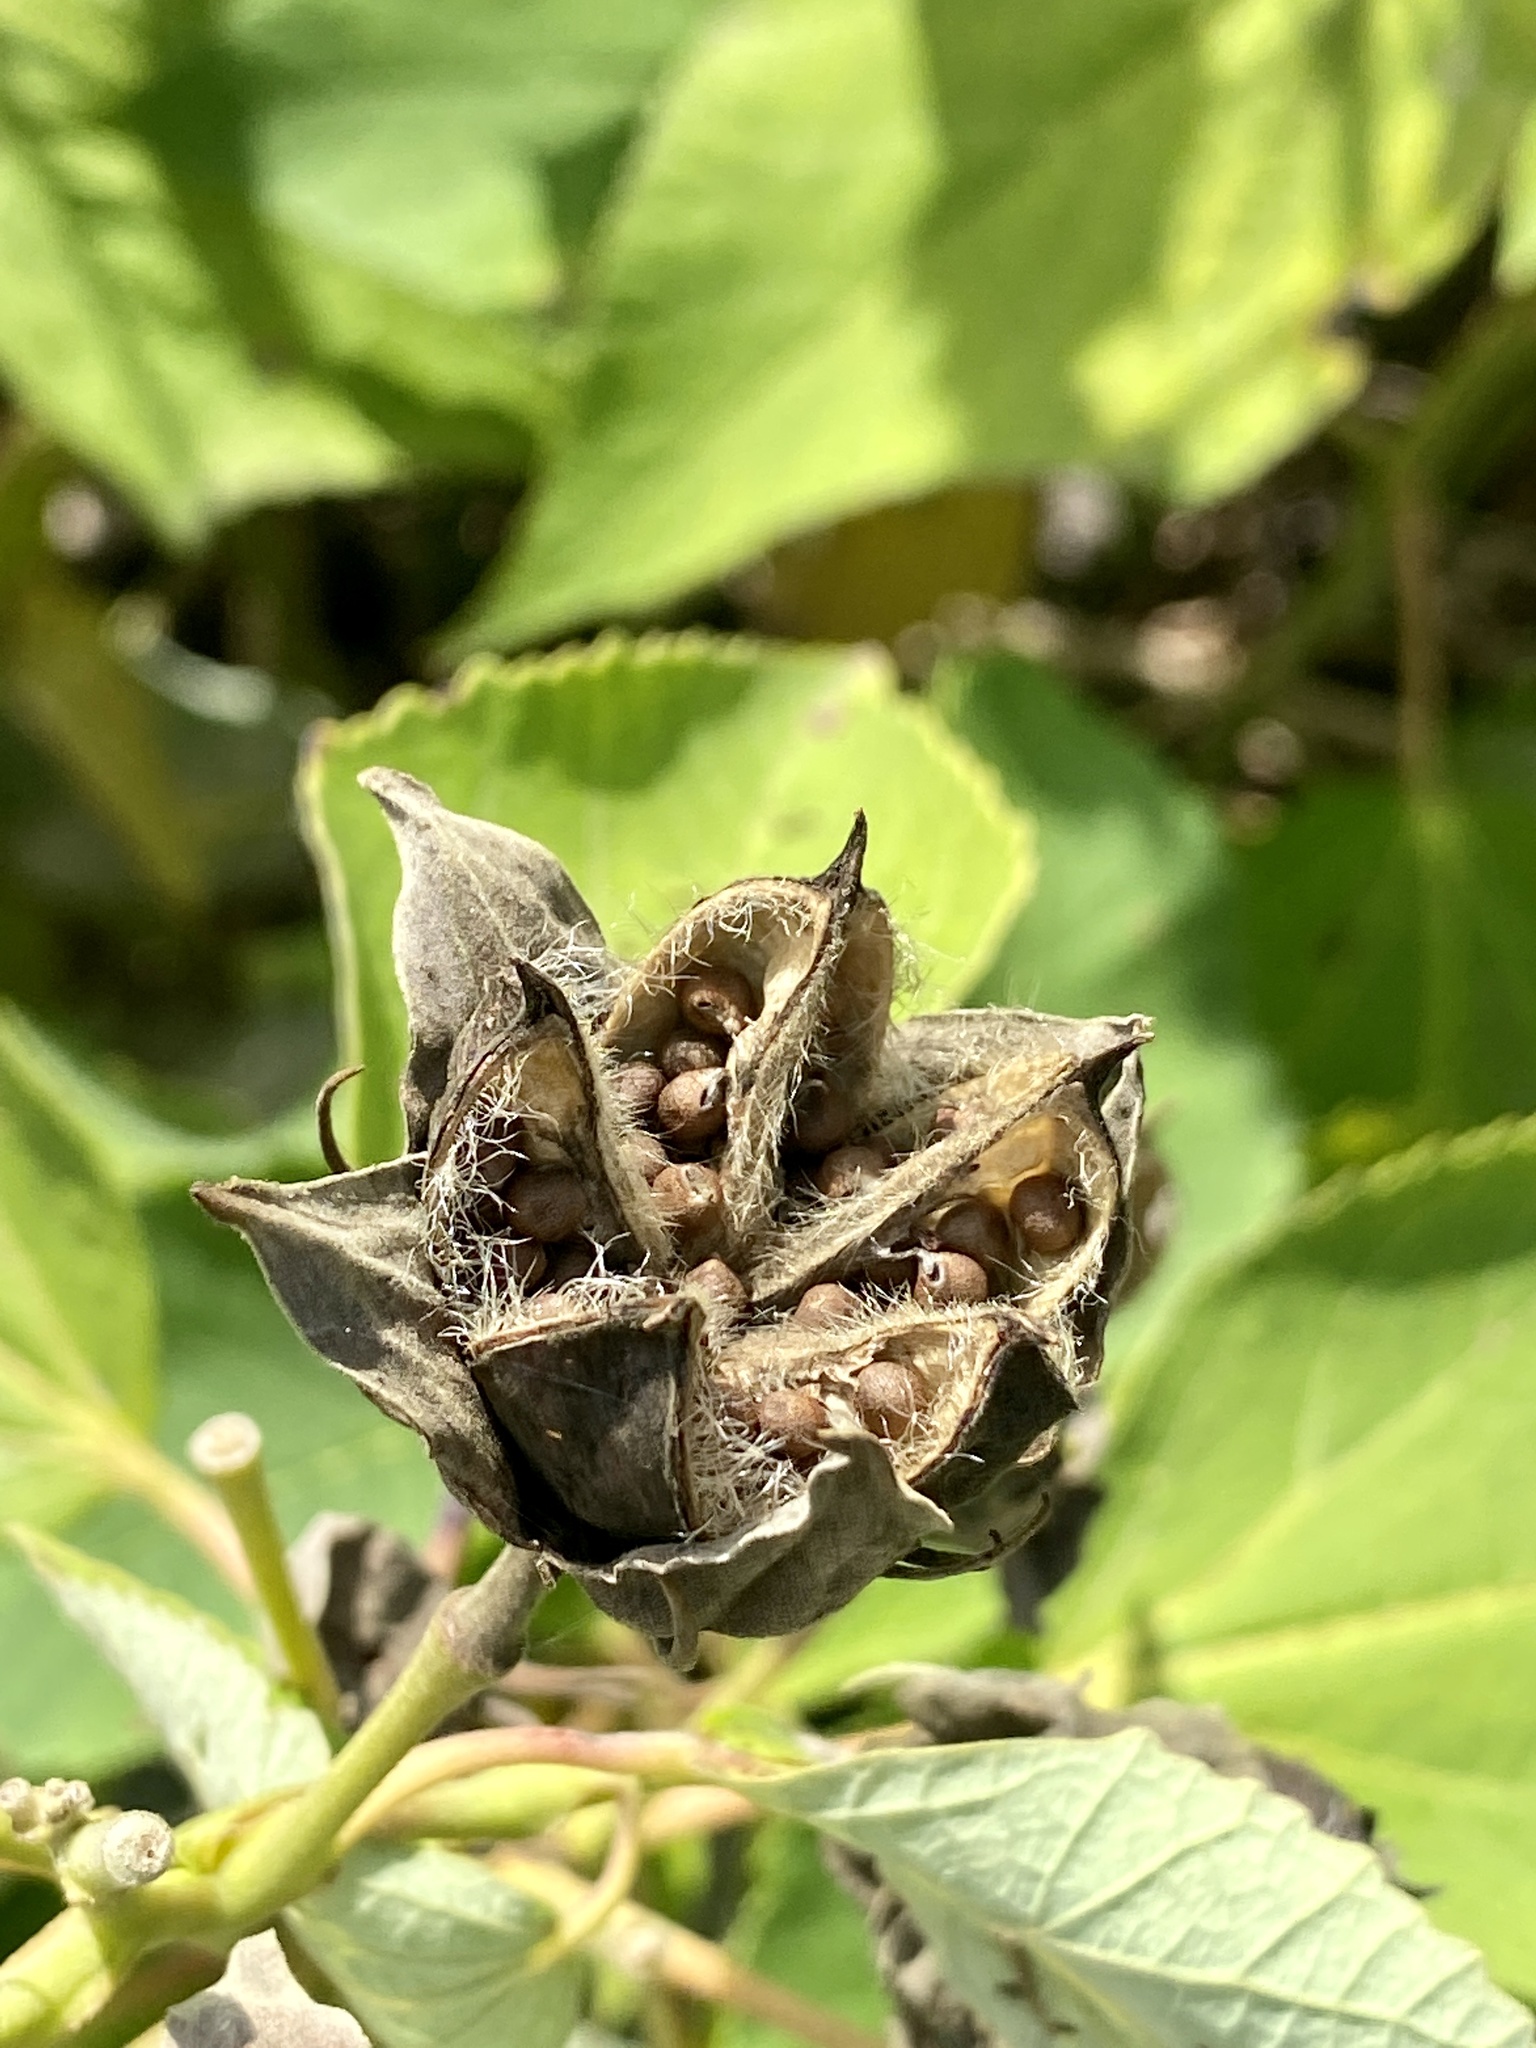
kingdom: Plantae
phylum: Tracheophyta
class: Magnoliopsida
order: Malvales
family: Malvaceae
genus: Hibiscus
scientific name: Hibiscus moscheutos
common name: Common rose-mallow
